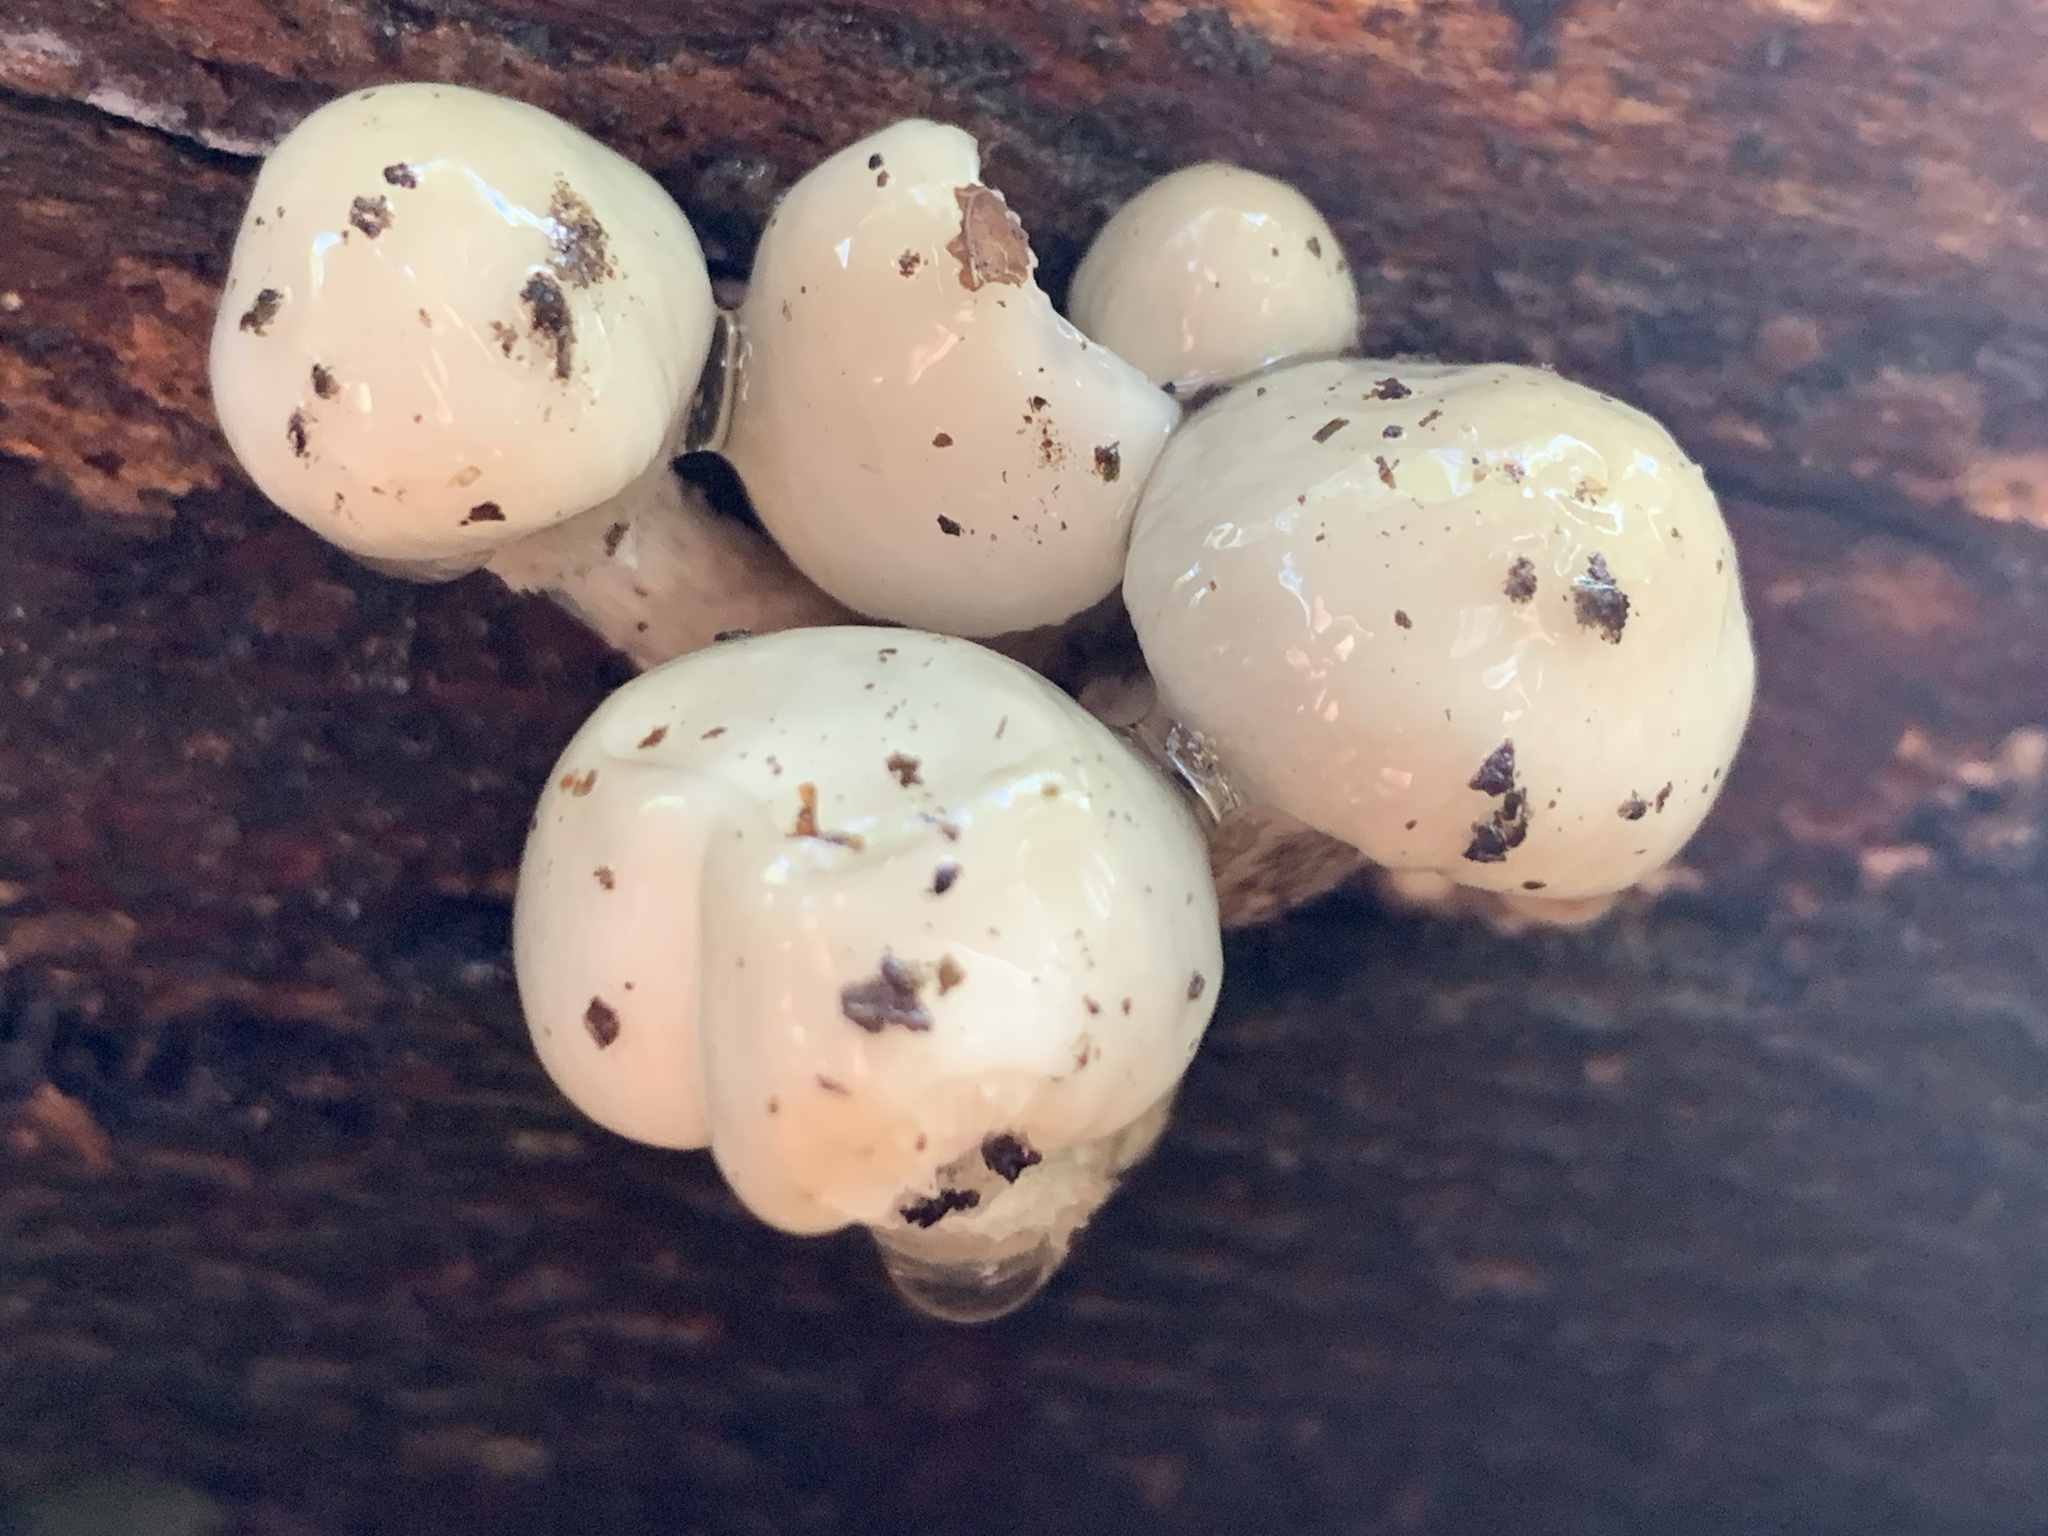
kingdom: Fungi
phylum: Basidiomycota
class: Agaricomycetes
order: Agaricales
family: Physalacriaceae
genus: Mucidula
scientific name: Mucidula mucida
